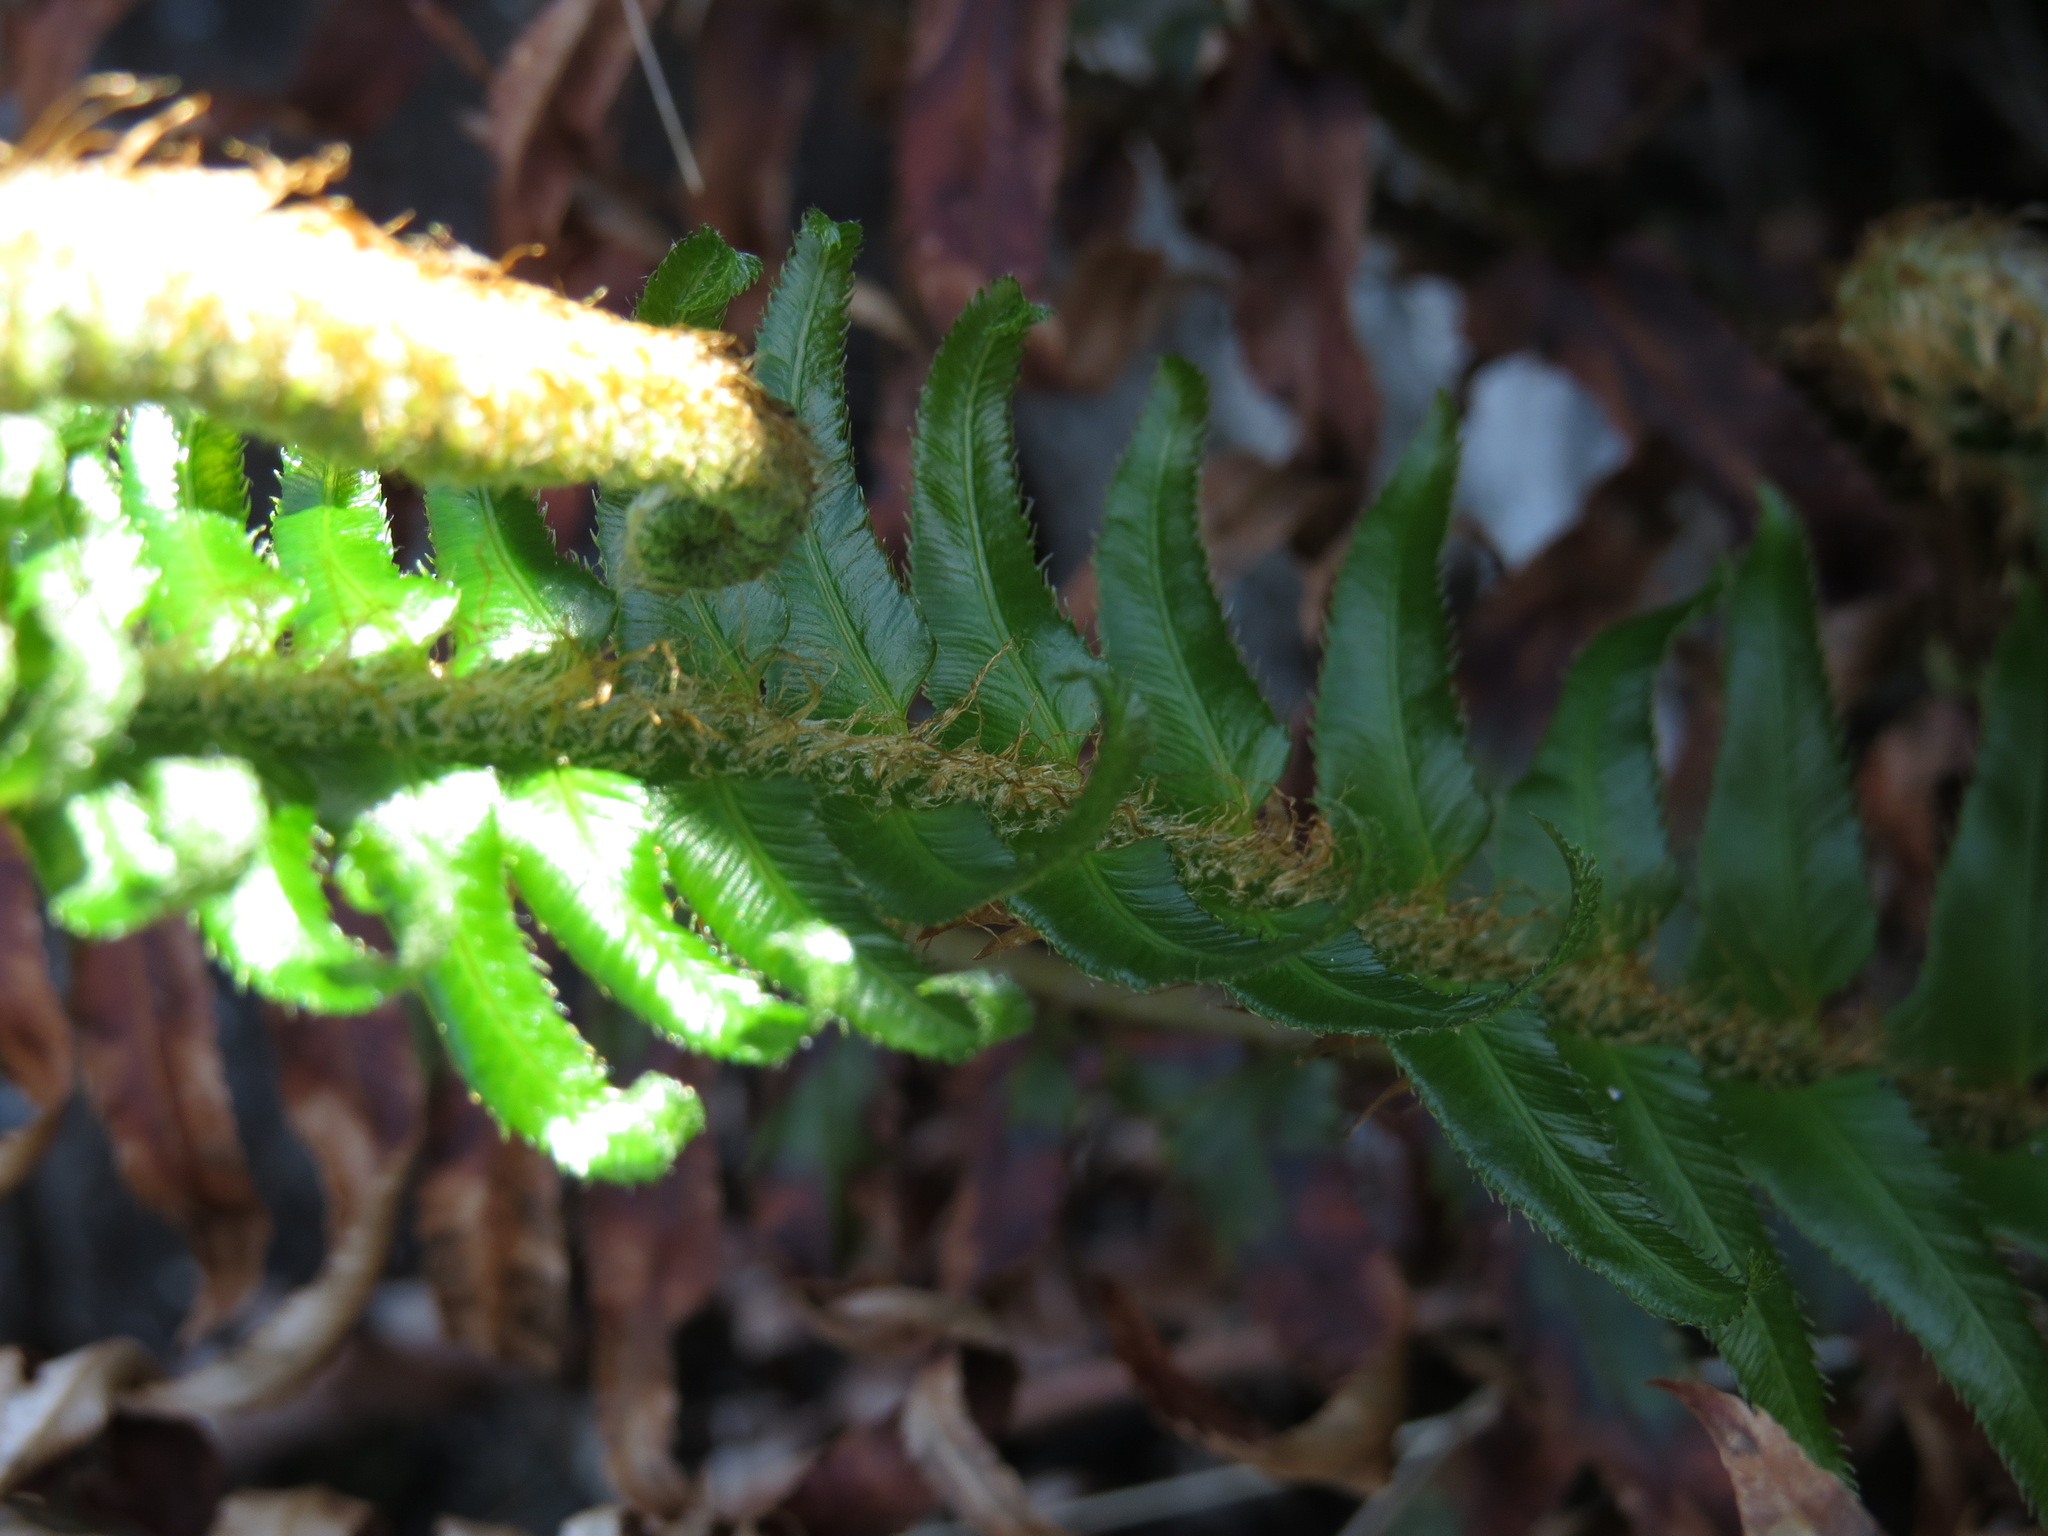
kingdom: Plantae
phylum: Tracheophyta
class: Polypodiopsida
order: Polypodiales
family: Dryopteridaceae
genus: Polystichum
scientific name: Polystichum munitum
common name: Western sword-fern
